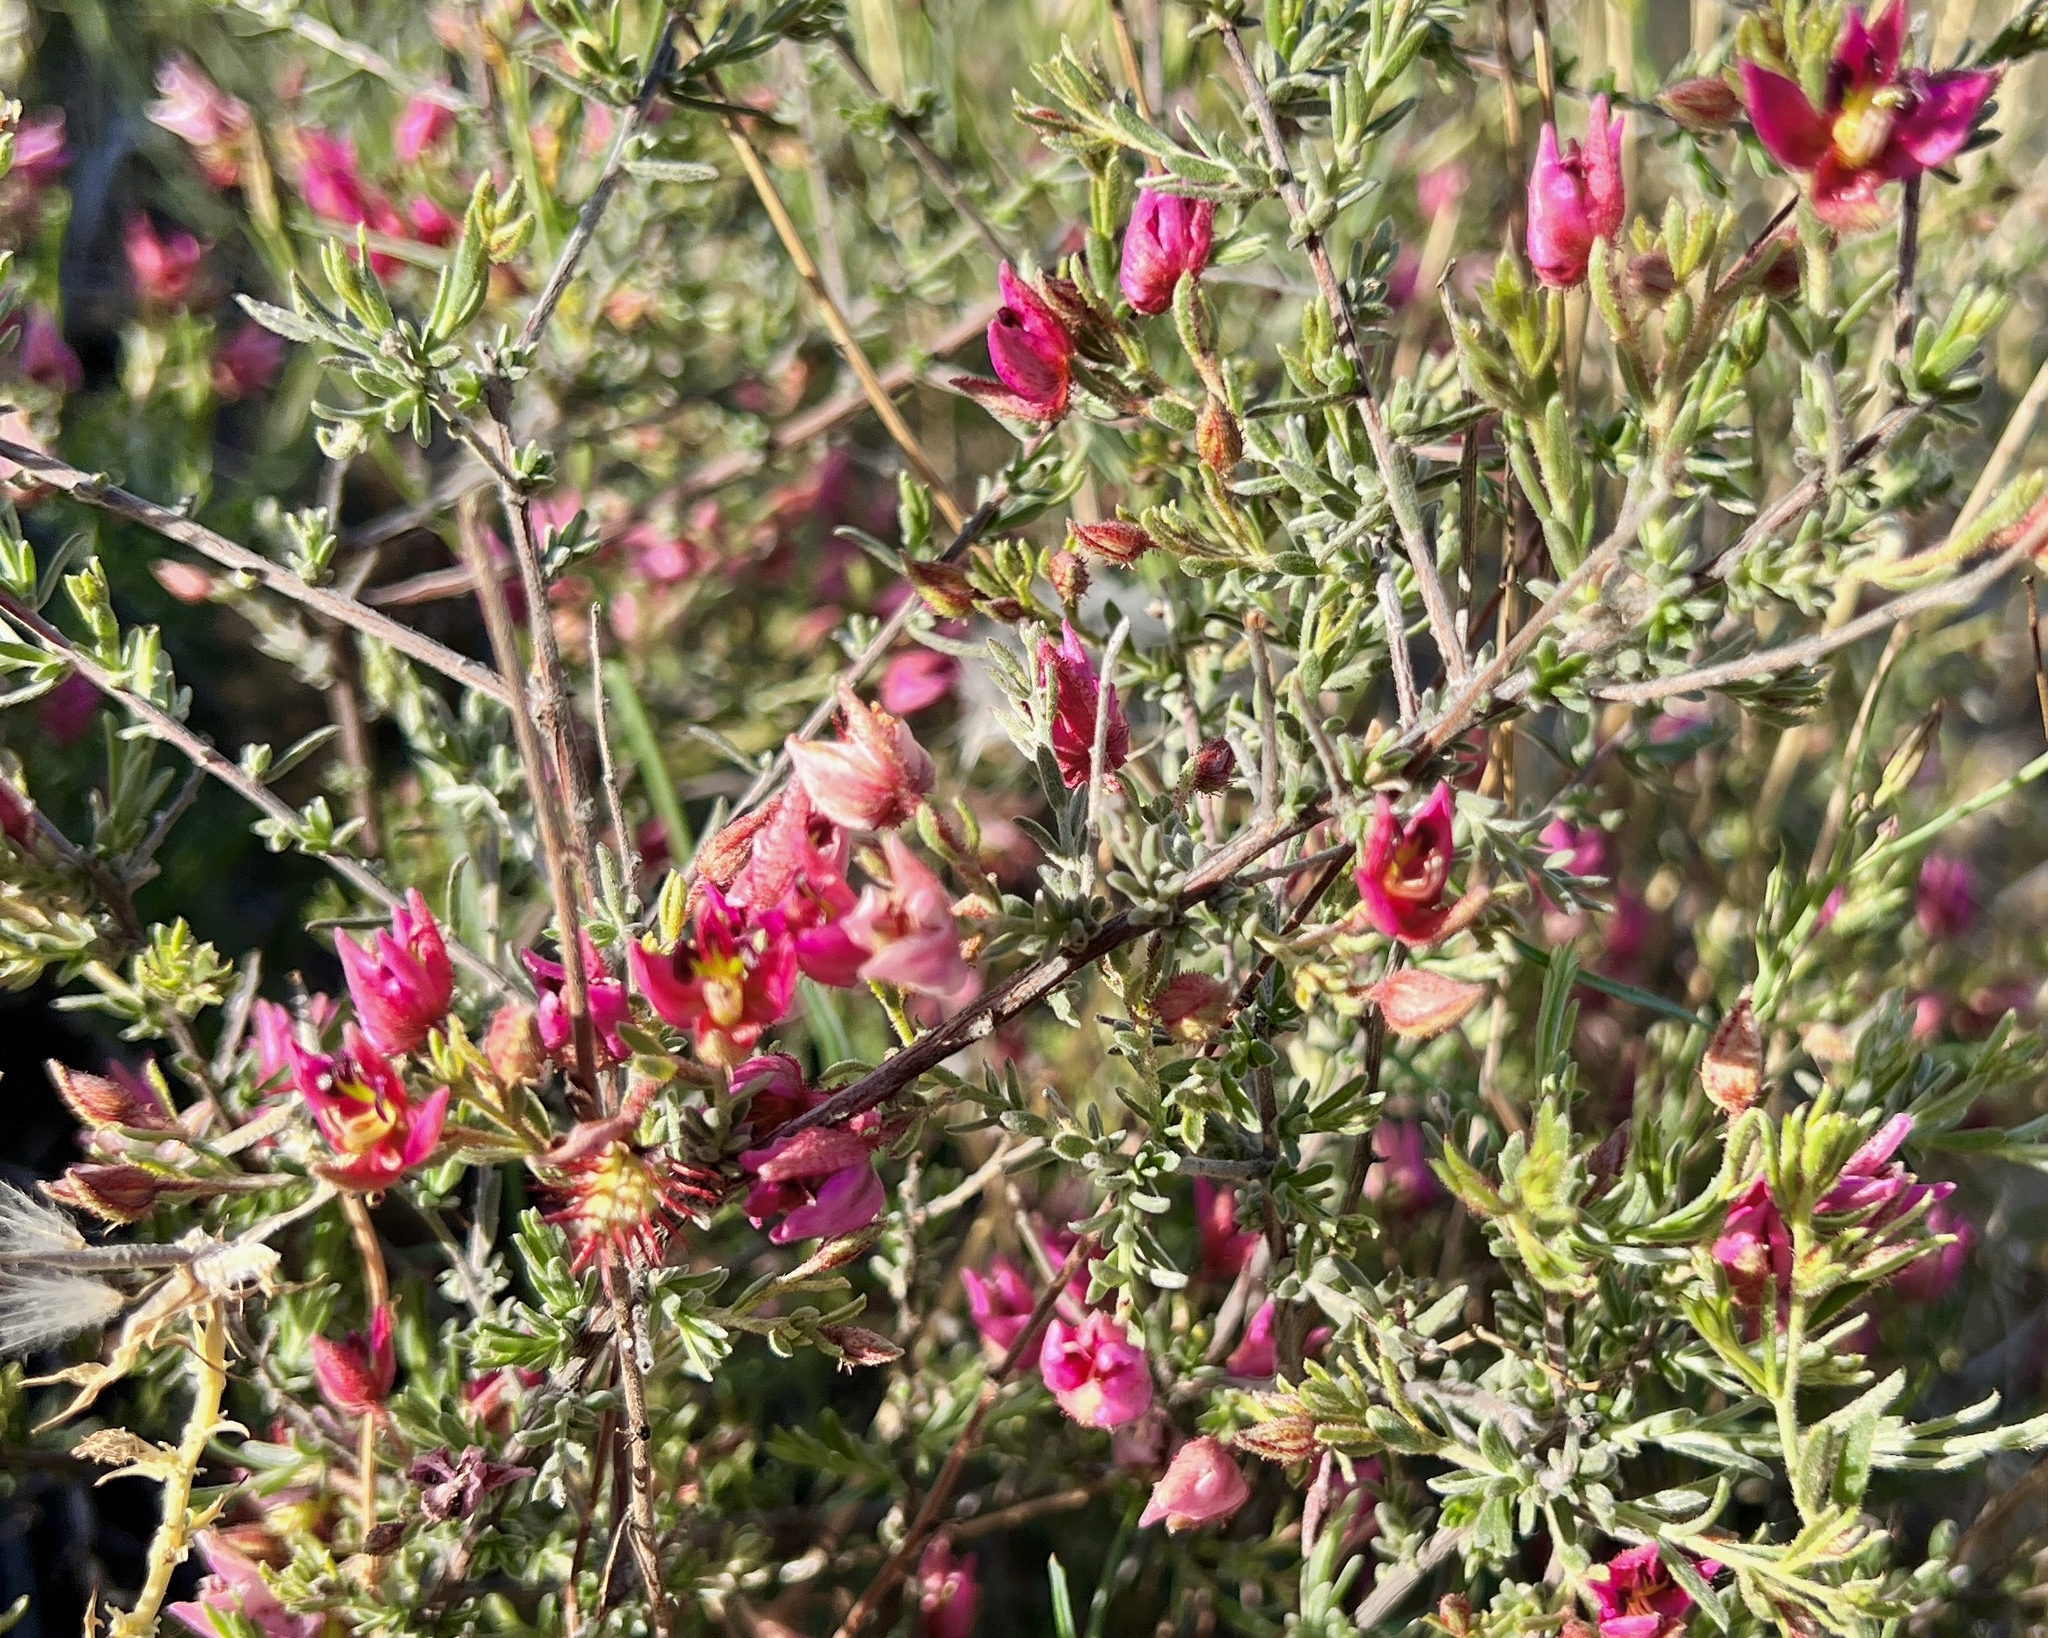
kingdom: Plantae
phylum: Tracheophyta
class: Magnoliopsida
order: Zygophyllales
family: Krameriaceae
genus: Krameria
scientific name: Krameria erecta
